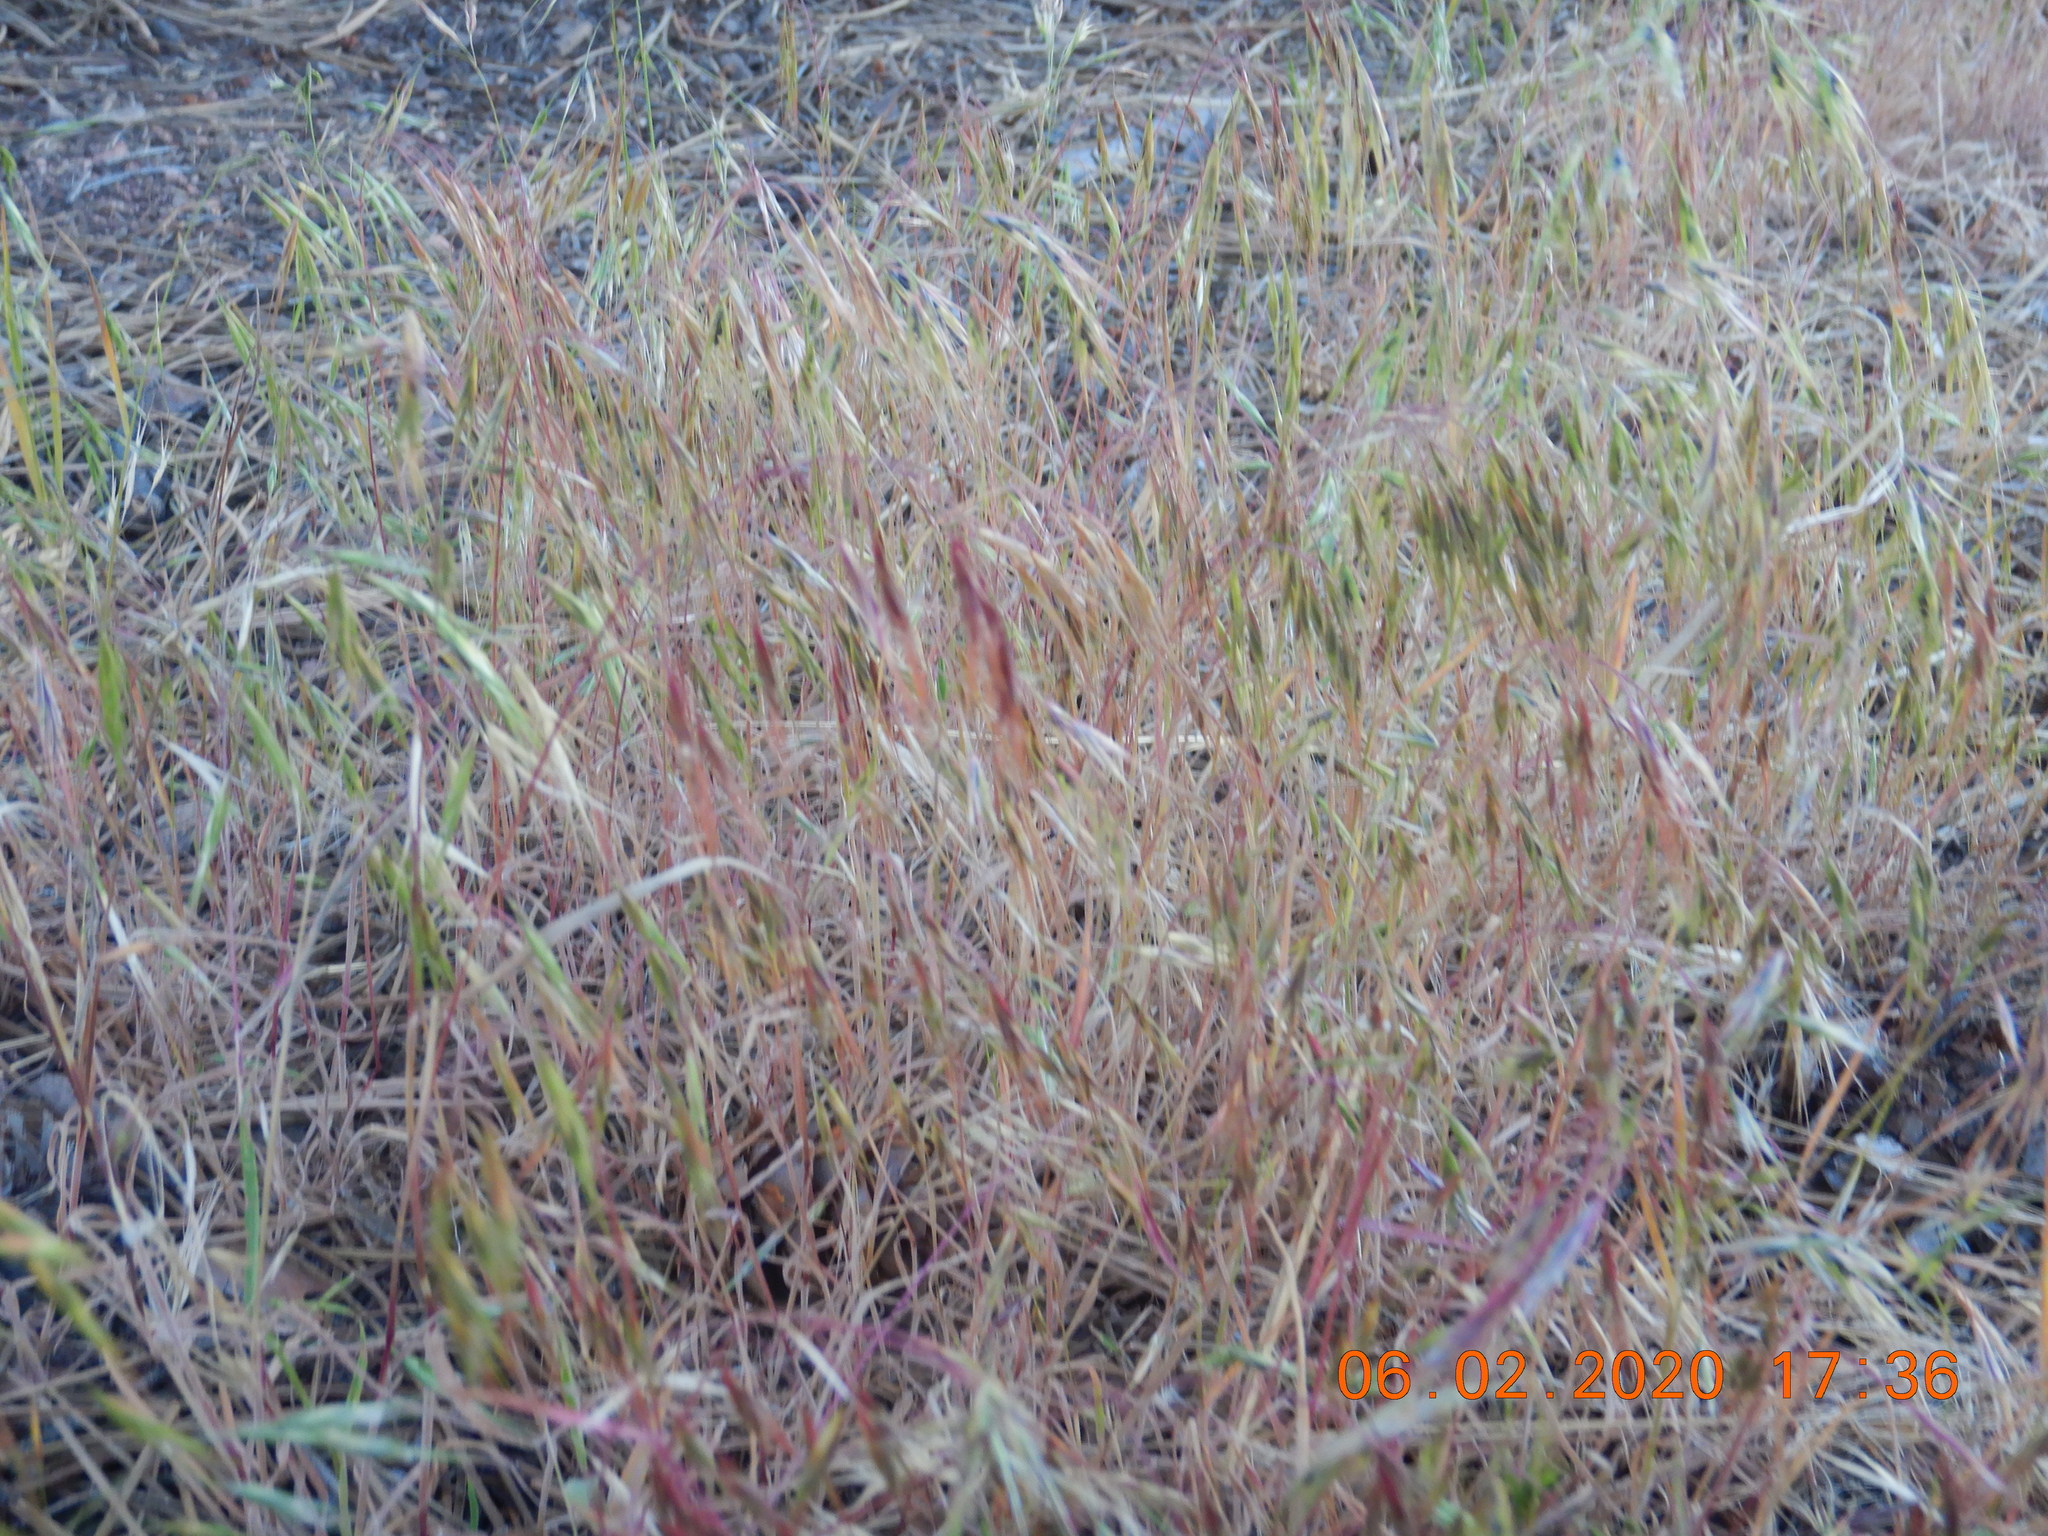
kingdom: Plantae
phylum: Tracheophyta
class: Liliopsida
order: Poales
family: Poaceae
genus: Bromus
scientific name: Bromus tectorum
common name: Cheatgrass
